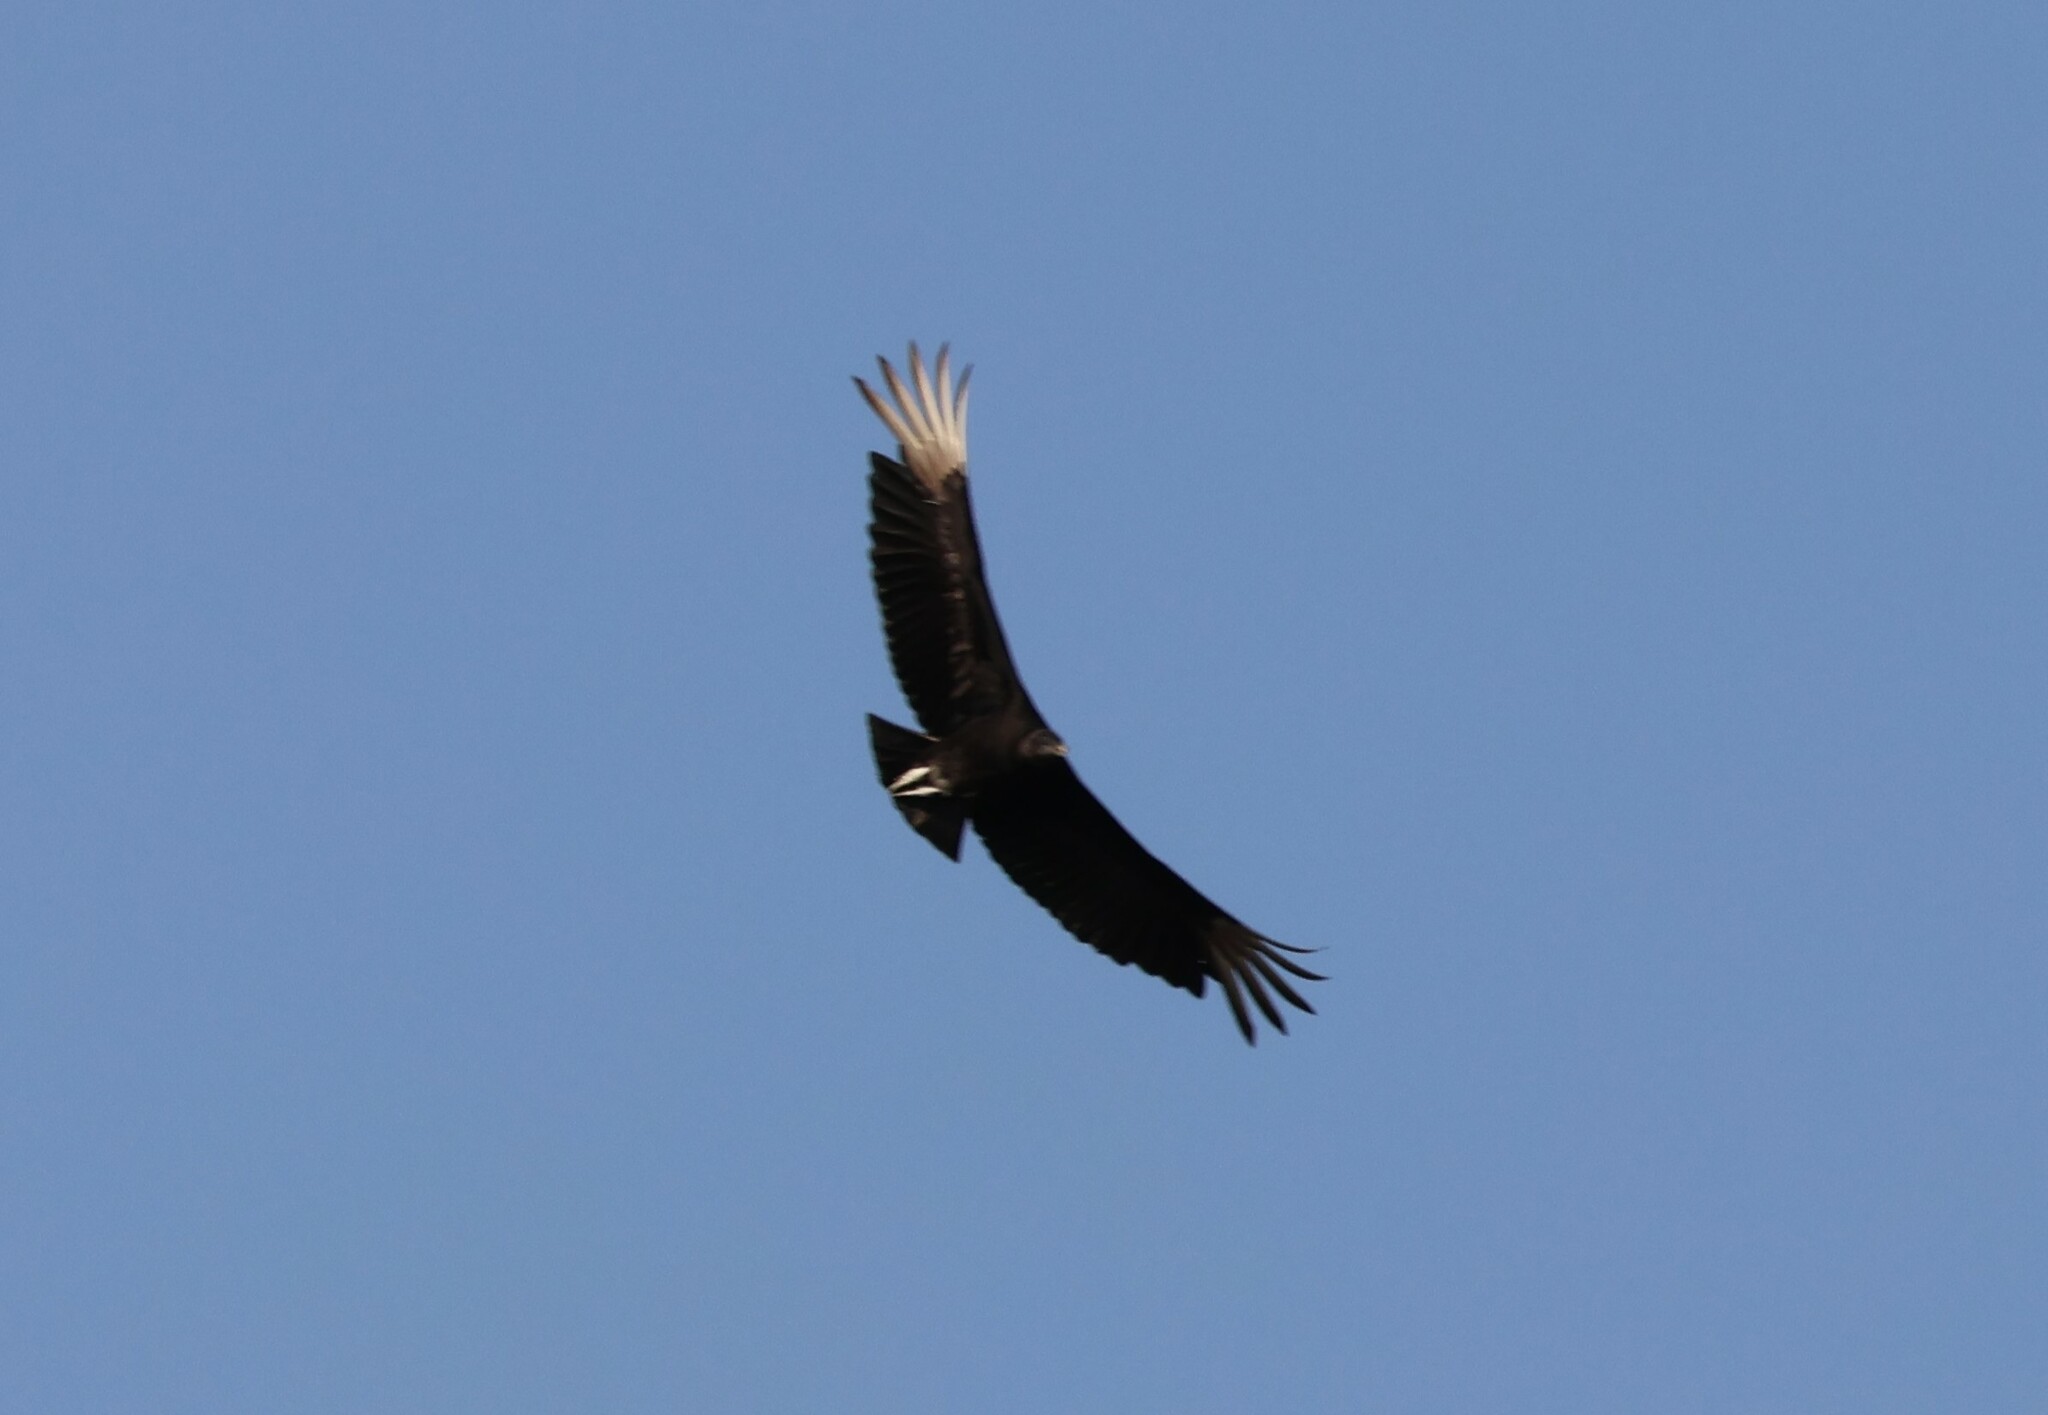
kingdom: Animalia
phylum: Chordata
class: Aves
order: Accipitriformes
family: Cathartidae
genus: Coragyps
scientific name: Coragyps atratus
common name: Black vulture
